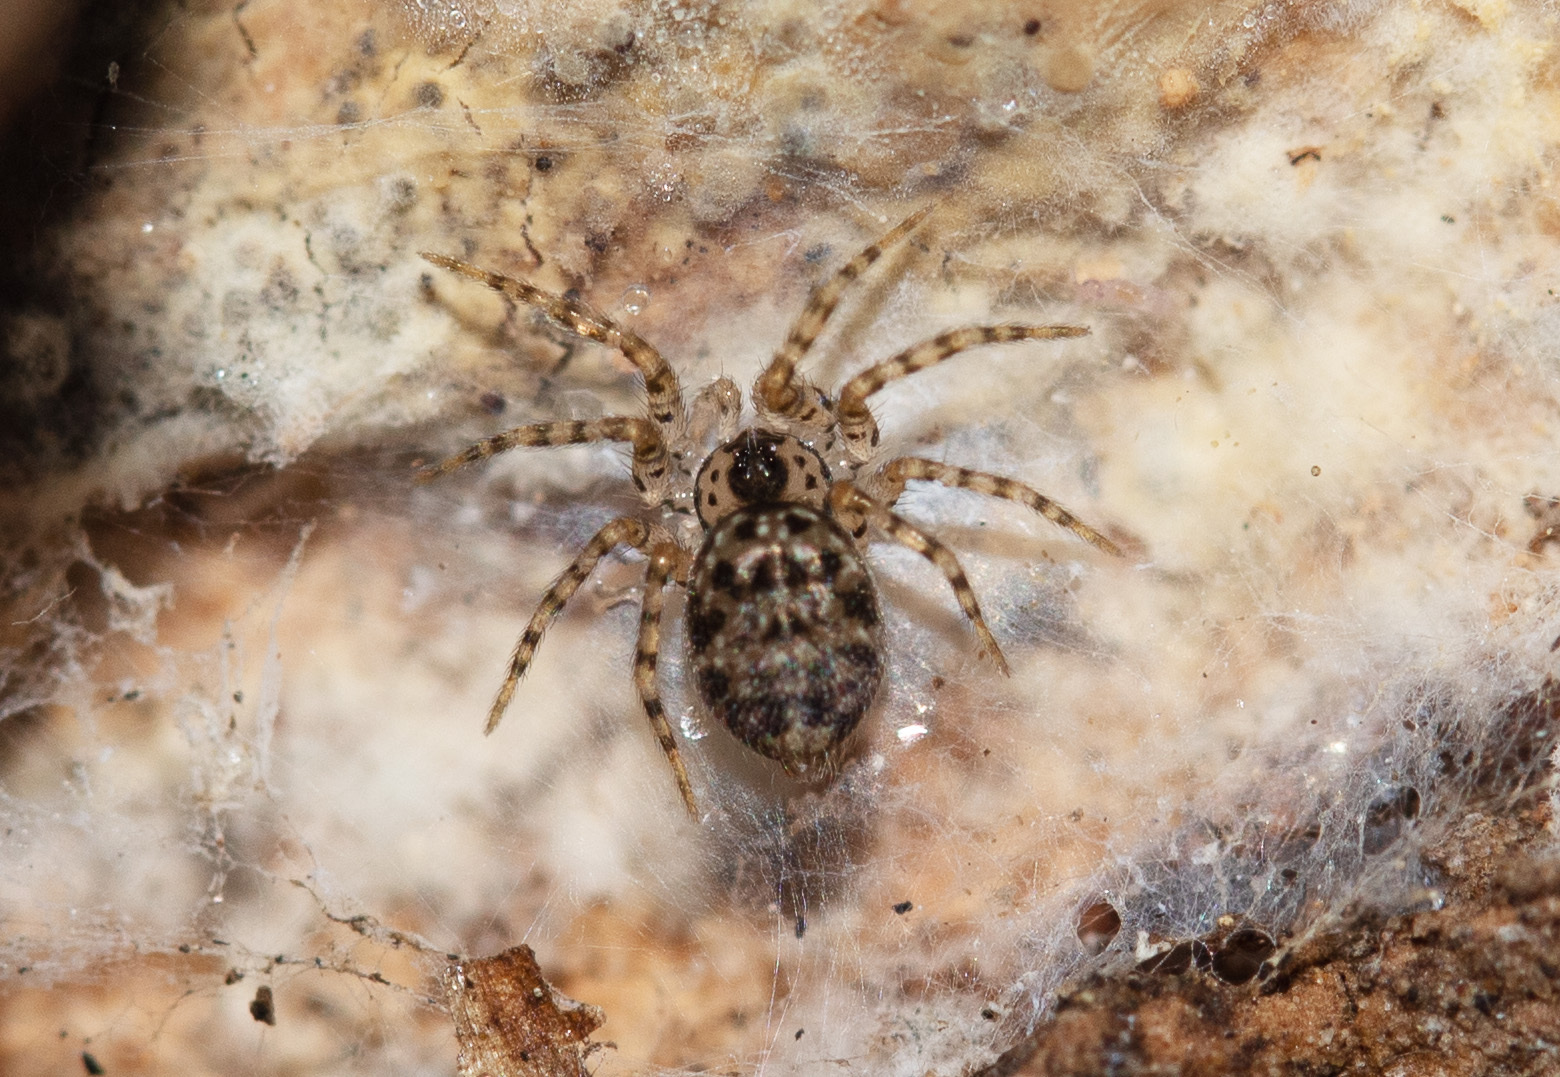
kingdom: Animalia
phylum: Arthropoda
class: Arachnida
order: Araneae
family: Oecobiidae
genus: Oecobius
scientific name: Oecobius navus
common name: Flatmesh weaver
